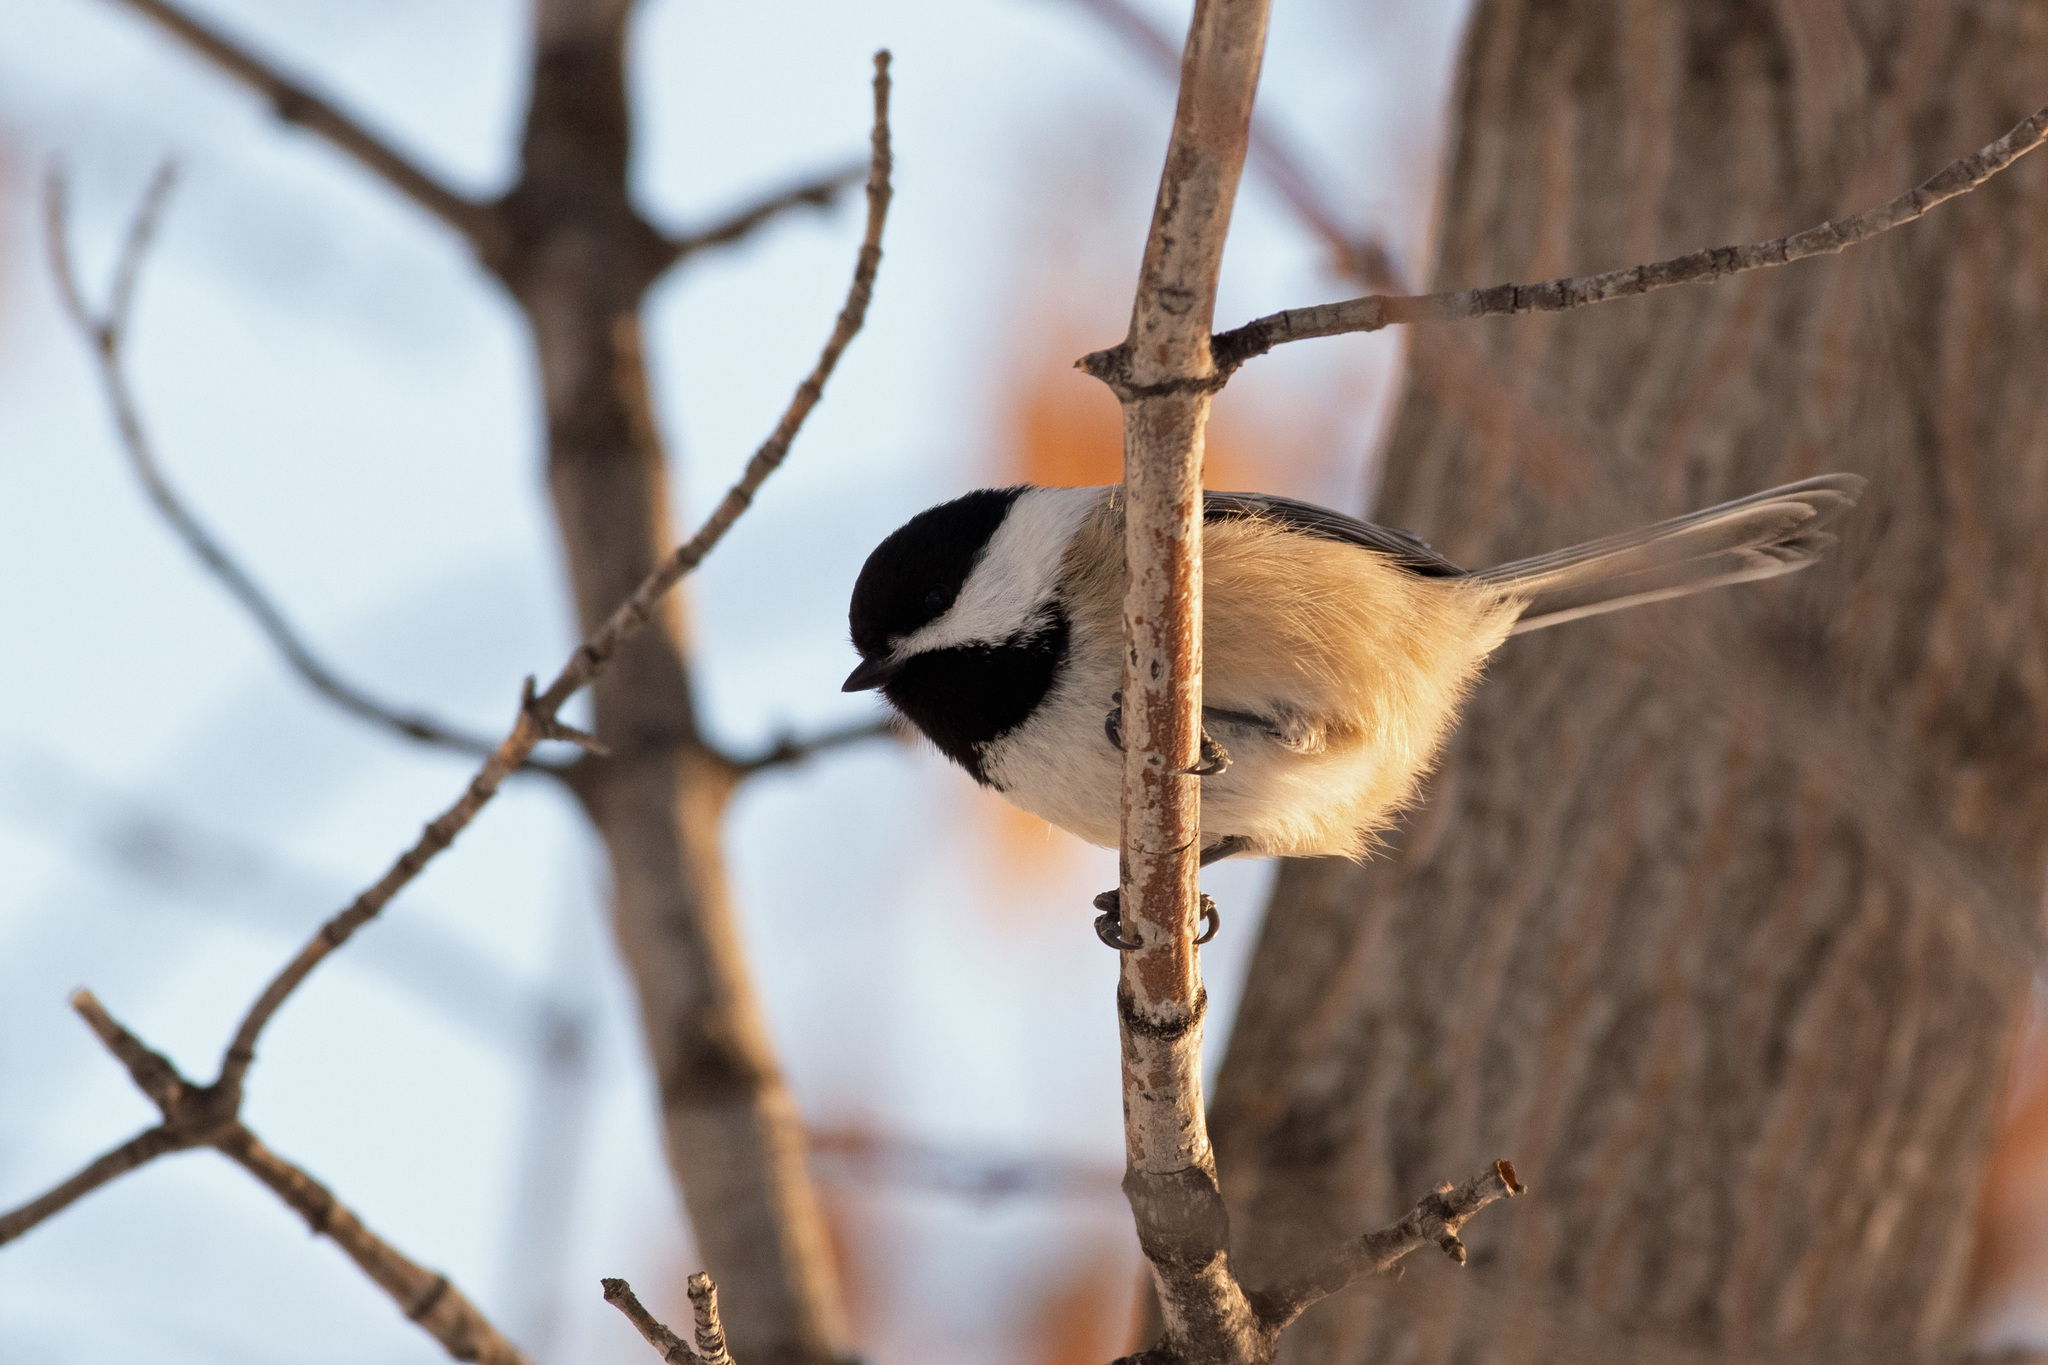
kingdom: Animalia
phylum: Chordata
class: Aves
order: Passeriformes
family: Paridae
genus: Poecile
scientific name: Poecile atricapillus
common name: Black-capped chickadee
